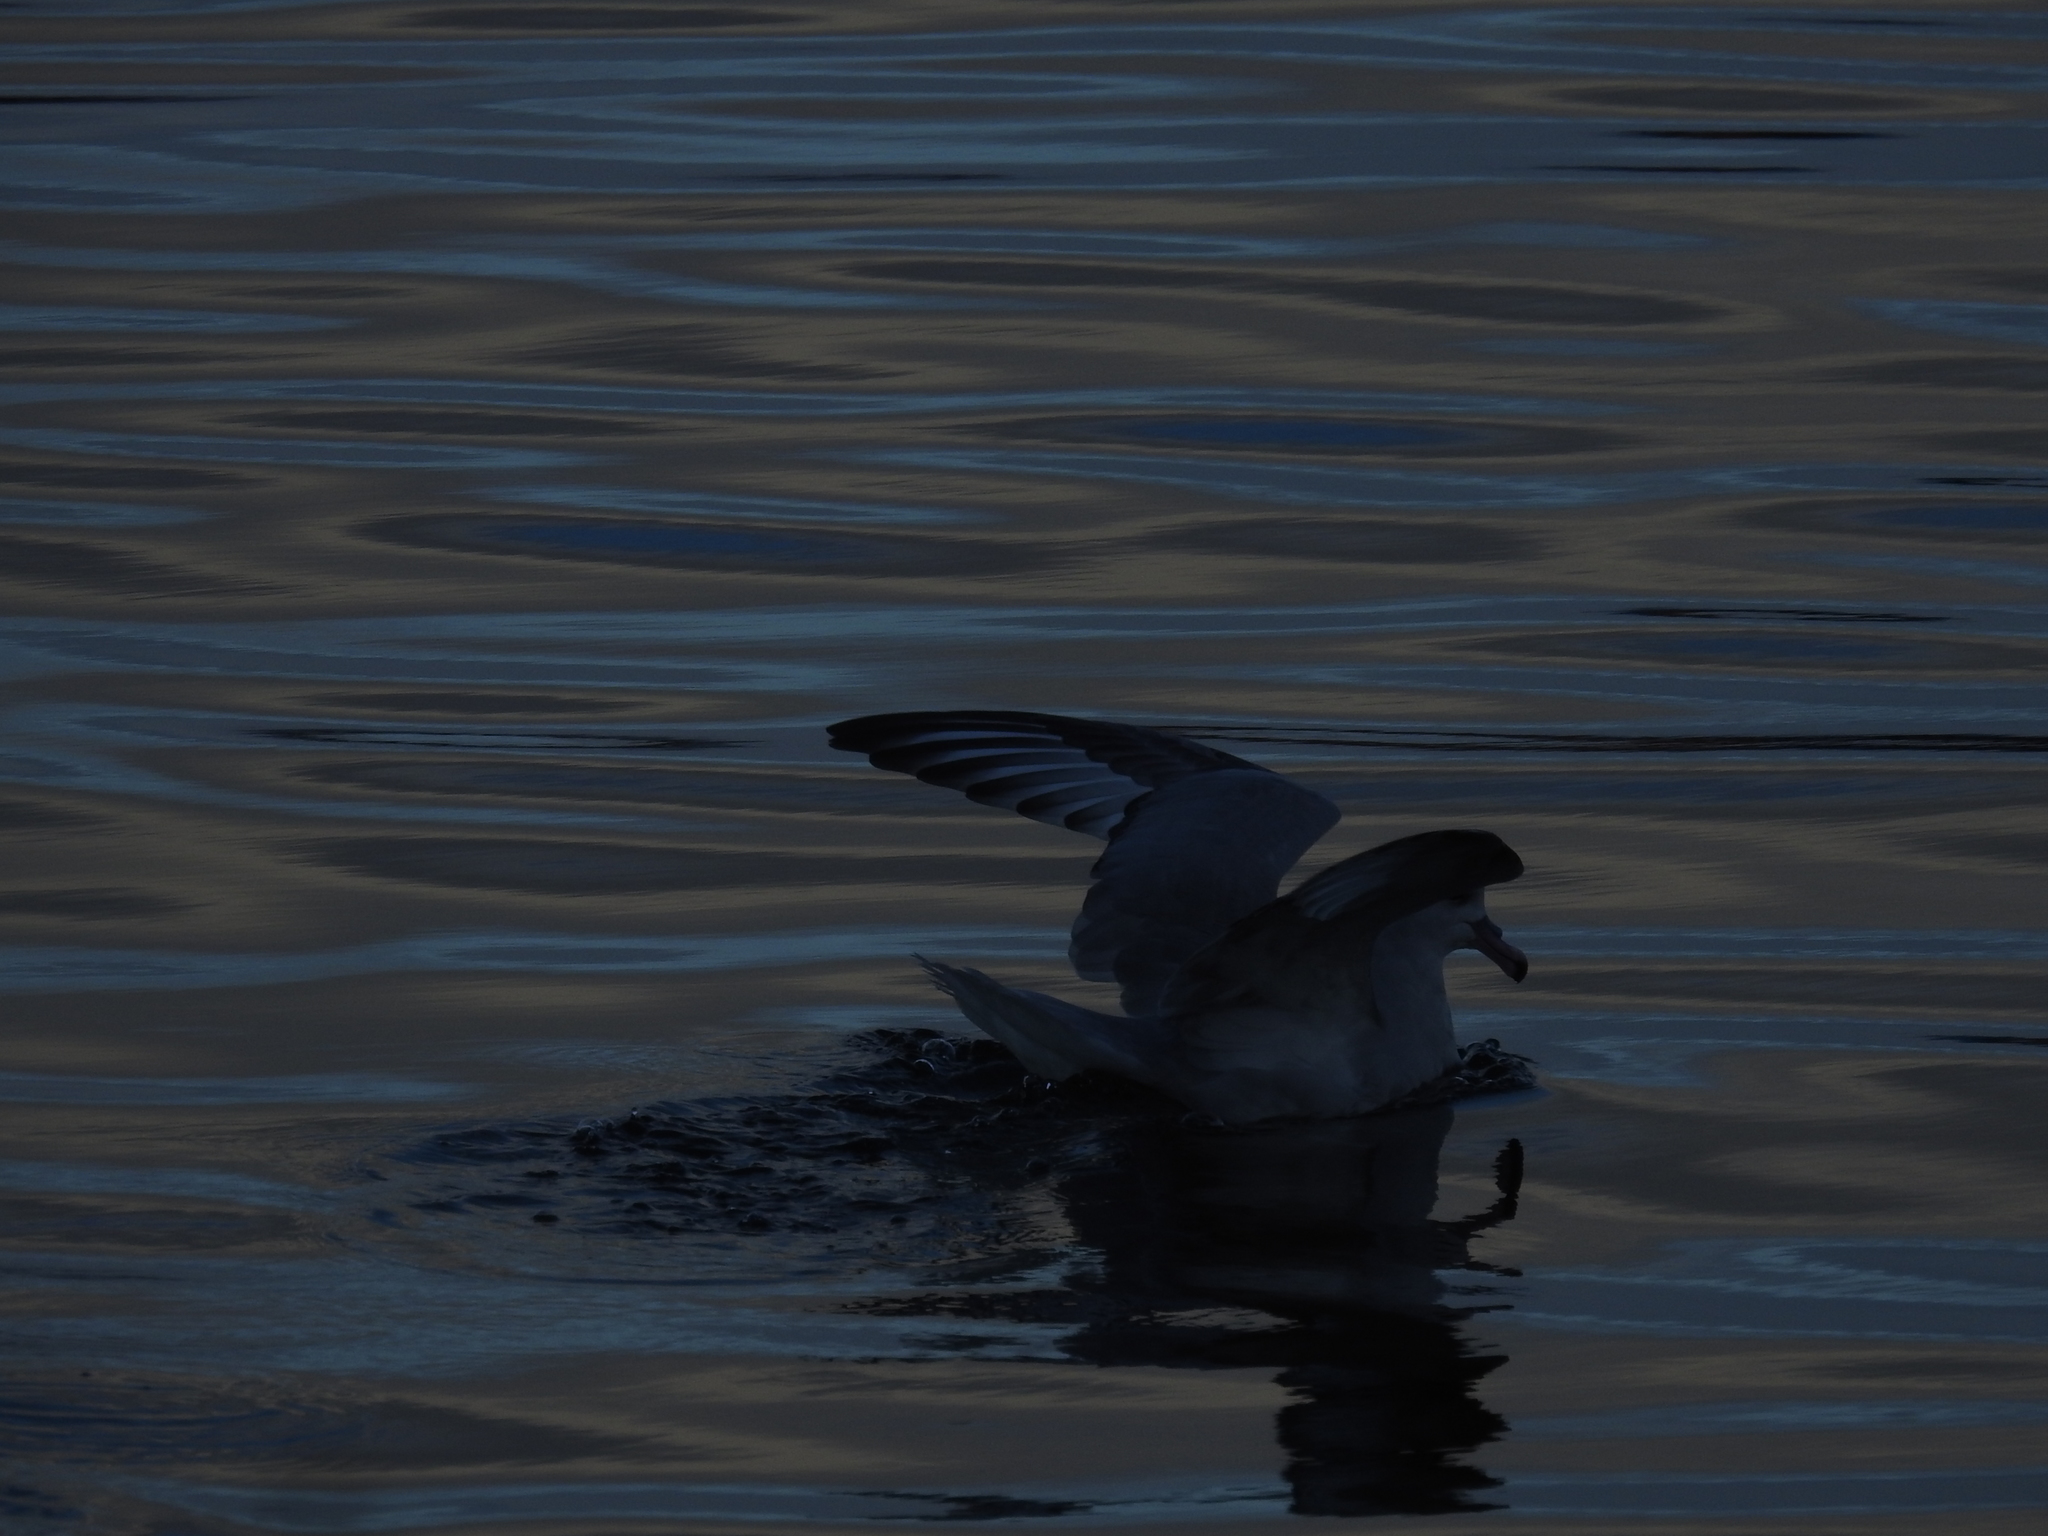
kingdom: Animalia
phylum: Chordata
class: Aves
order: Procellariiformes
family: Procellariidae
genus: Fulmarus
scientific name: Fulmarus glacialoides
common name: Southern fulmar
